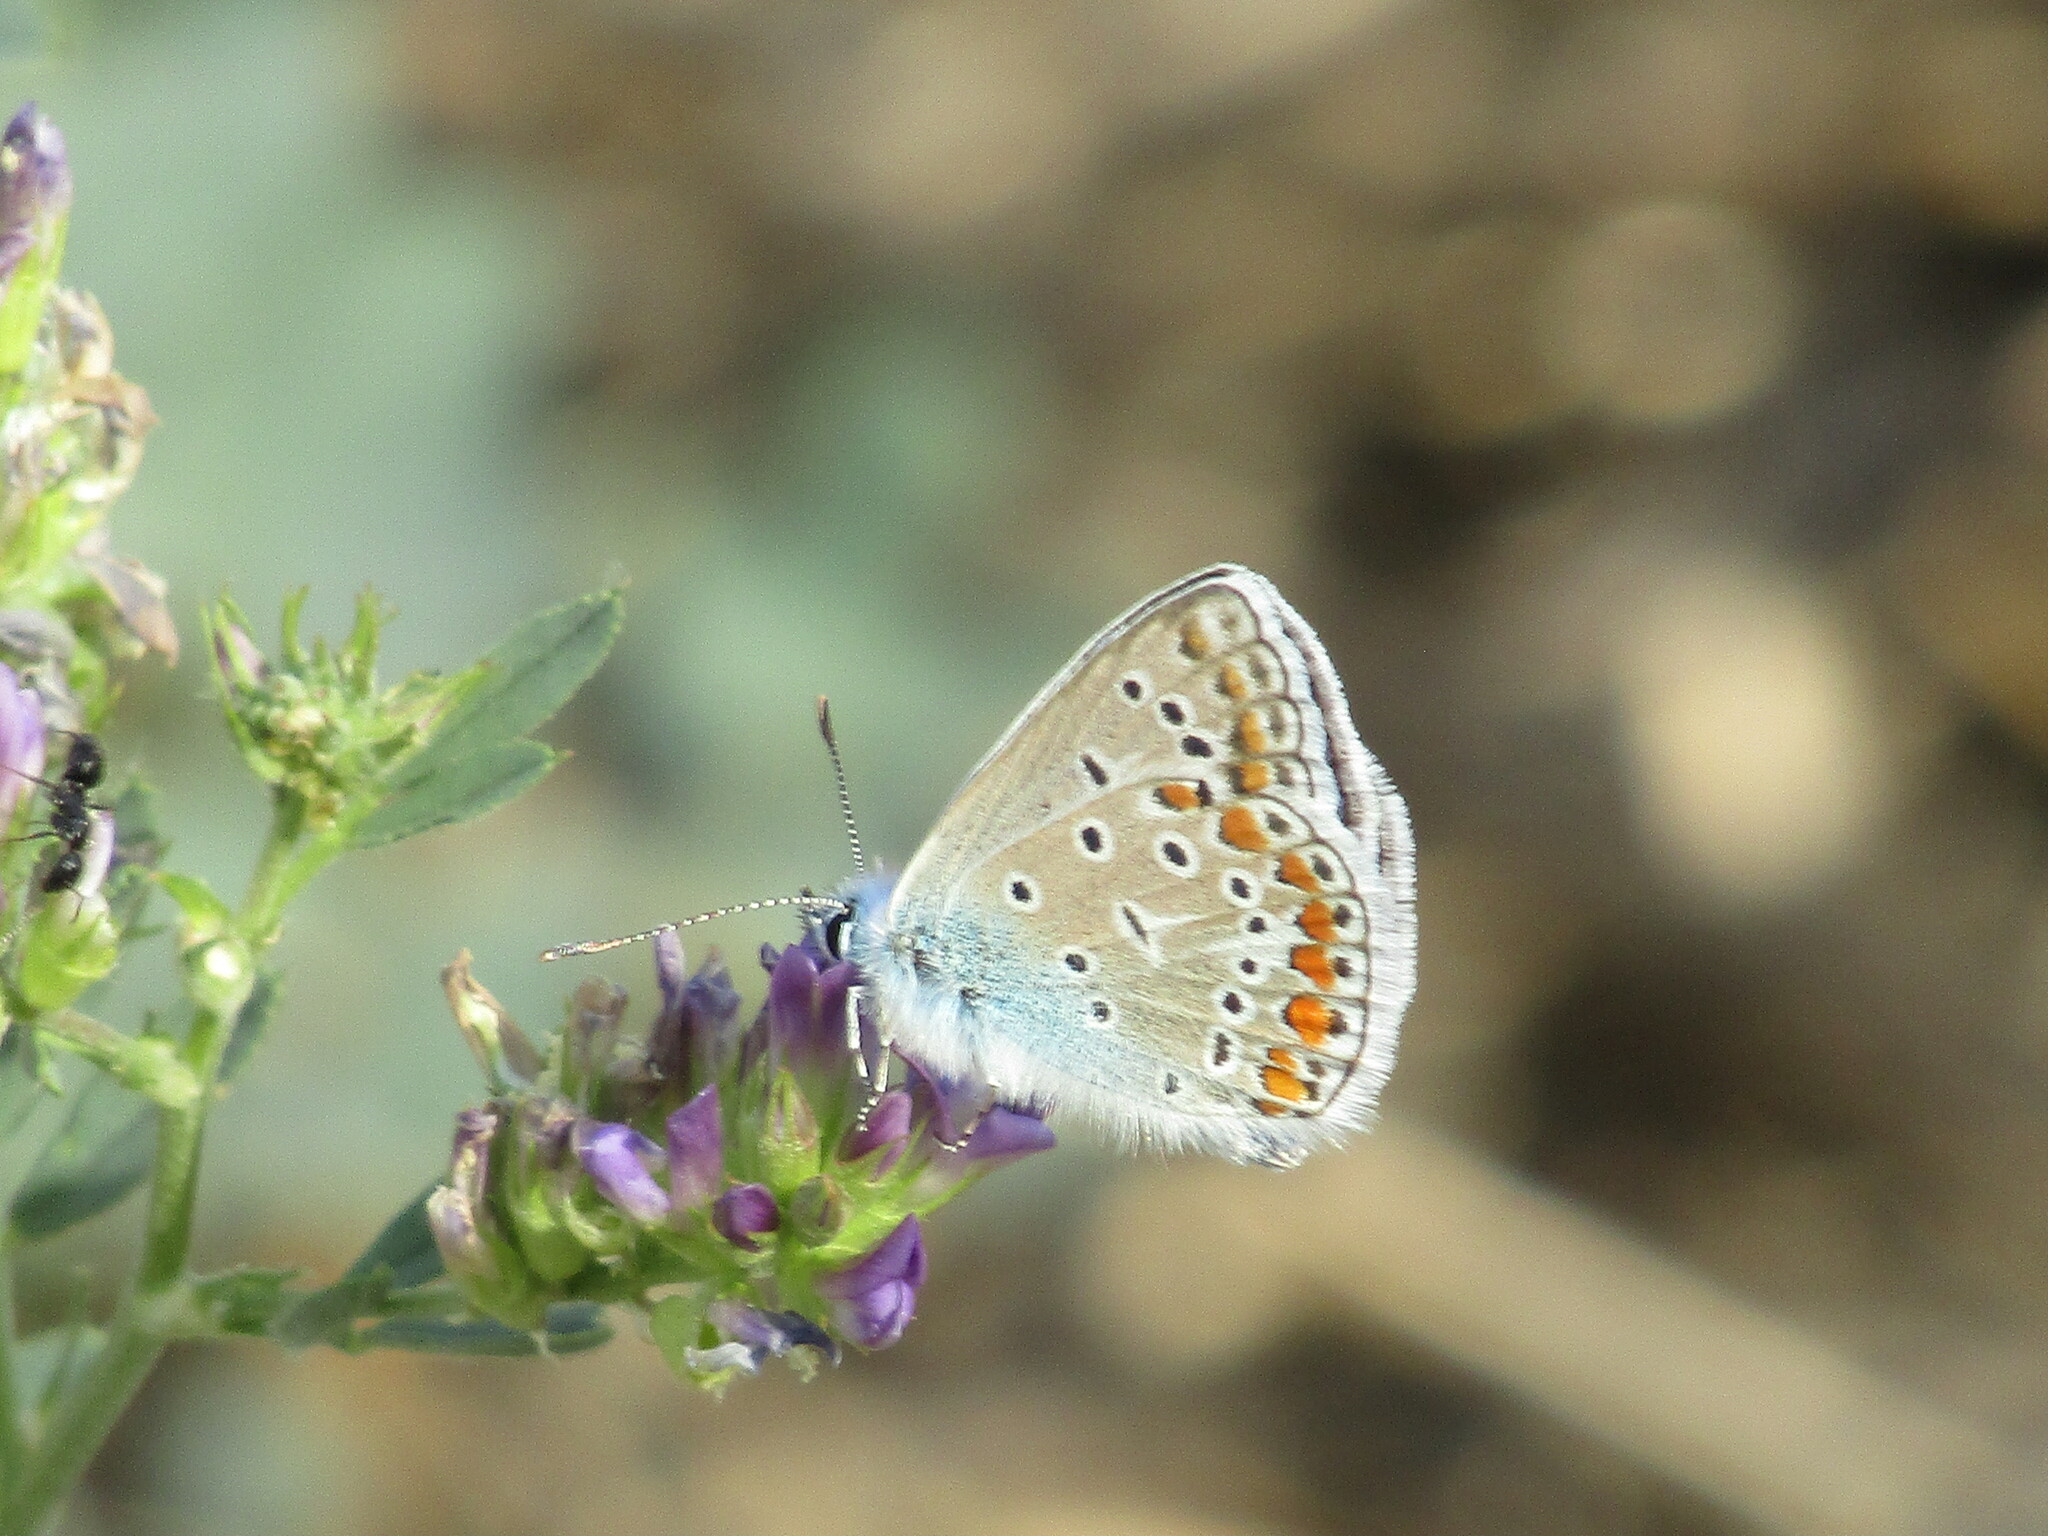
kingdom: Animalia
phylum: Arthropoda
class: Insecta
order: Lepidoptera
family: Lycaenidae
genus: Polyommatus
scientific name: Polyommatus icarus
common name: Common blue
